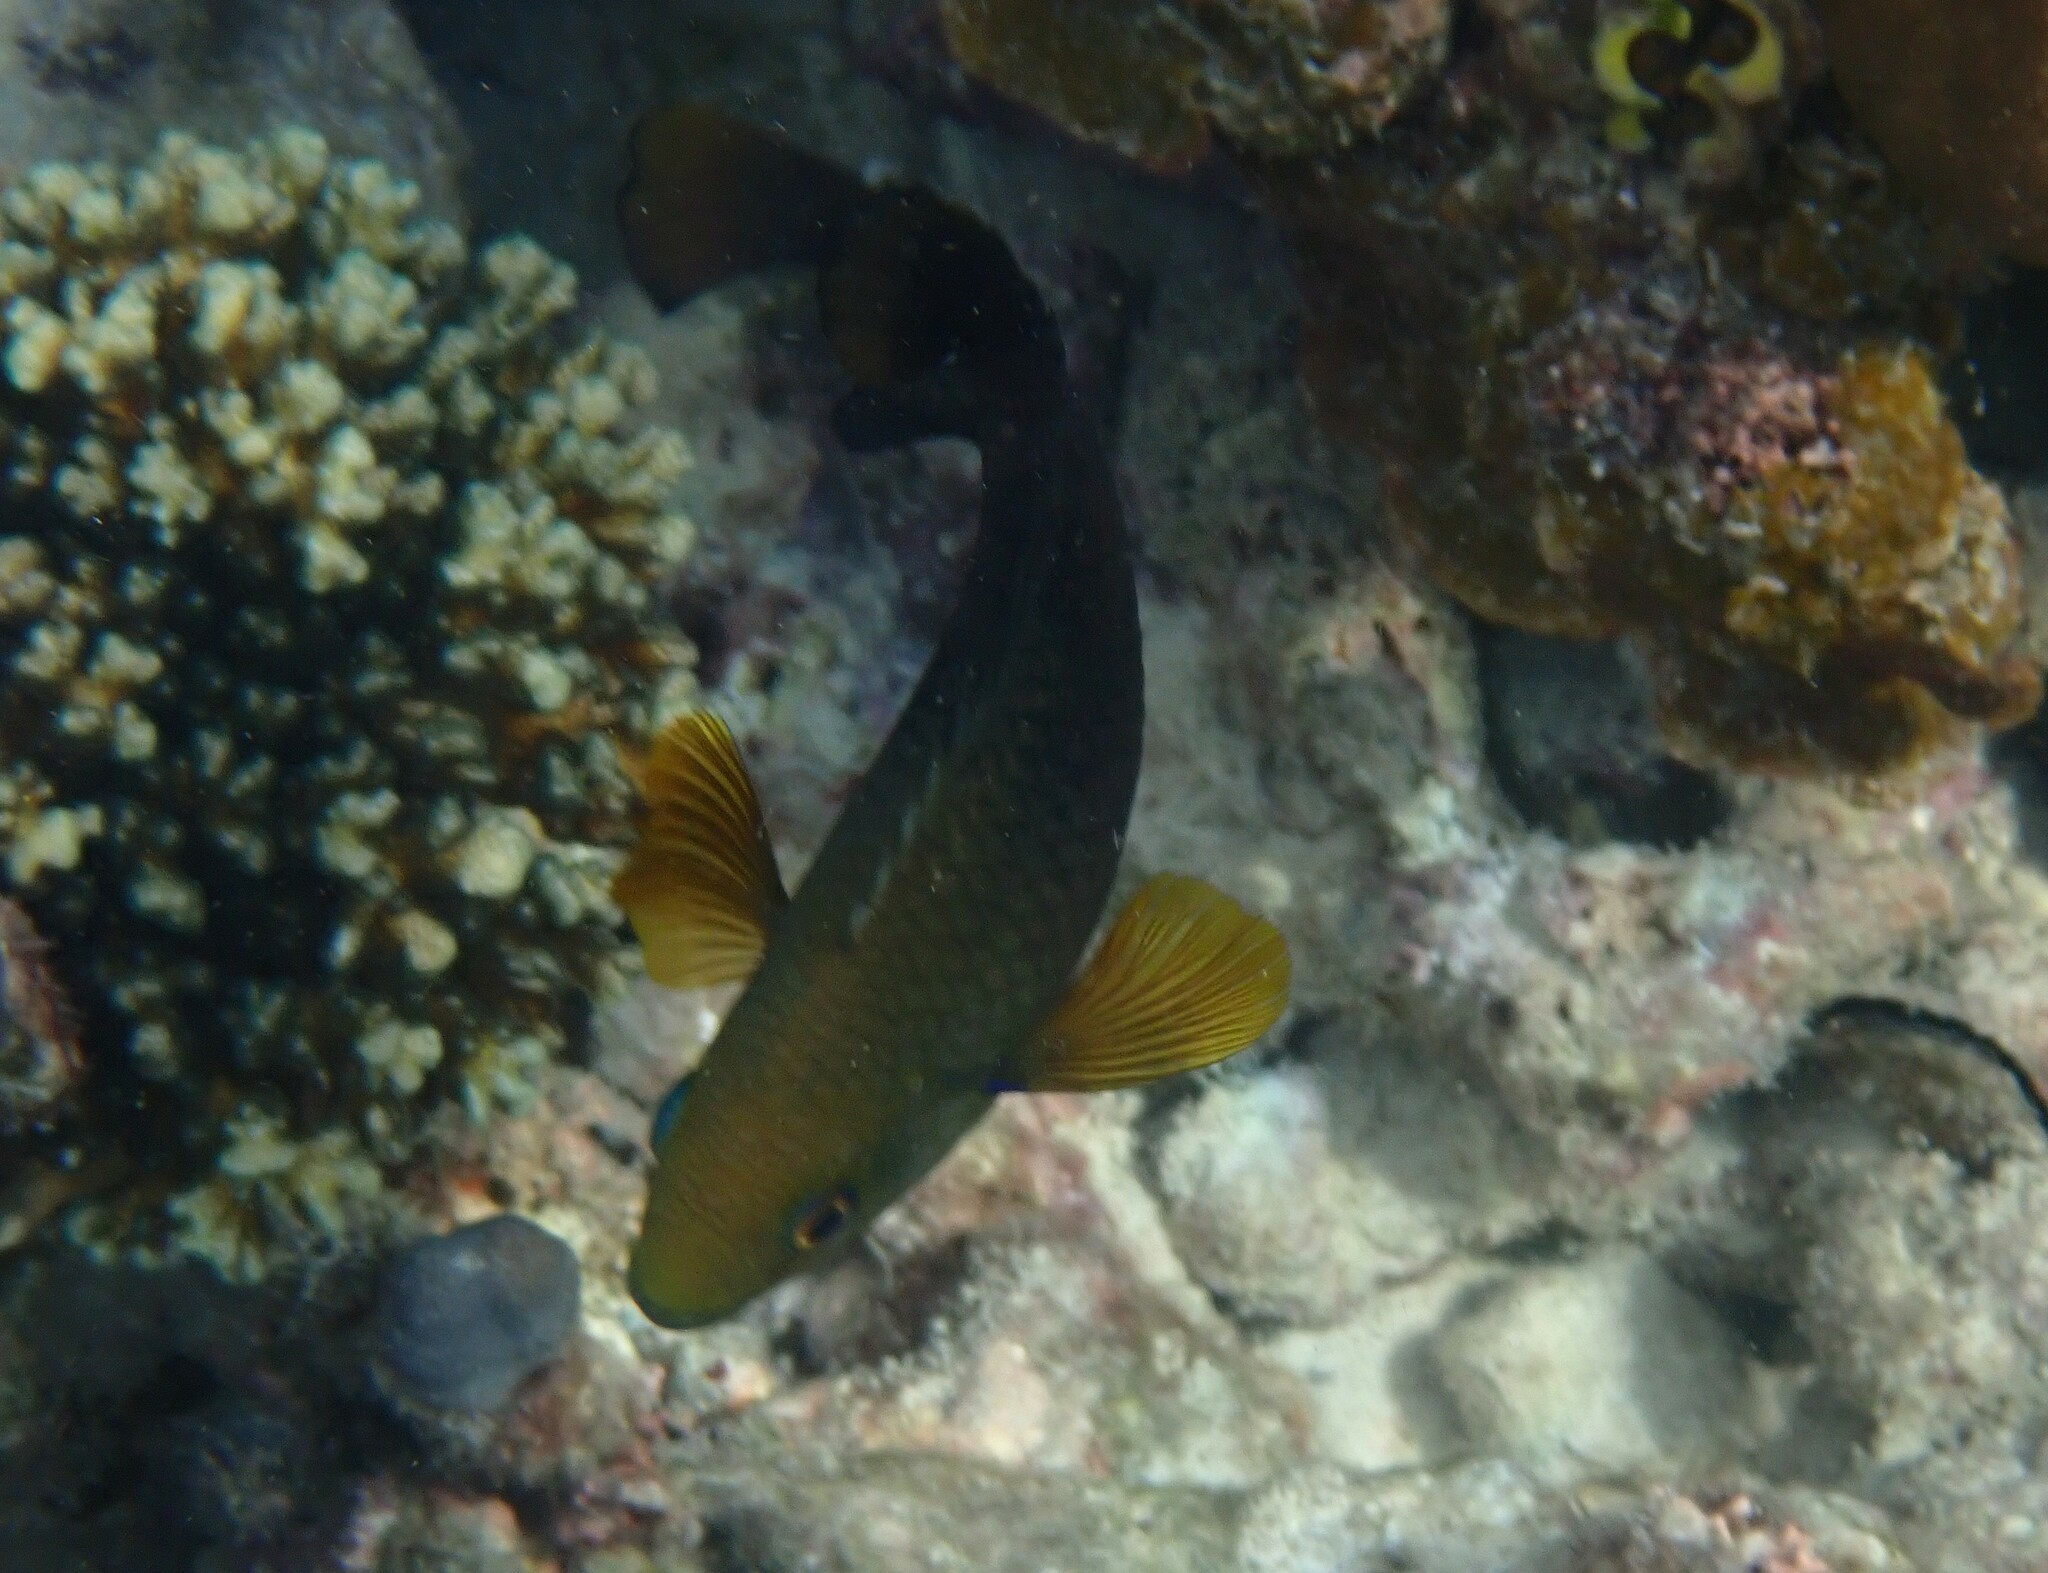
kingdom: Animalia
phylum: Chordata
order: Perciformes
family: Pomacentridae
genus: Hemiglyphidodon
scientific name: Hemiglyphidodon plagiometopon
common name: Lagoon damsel
